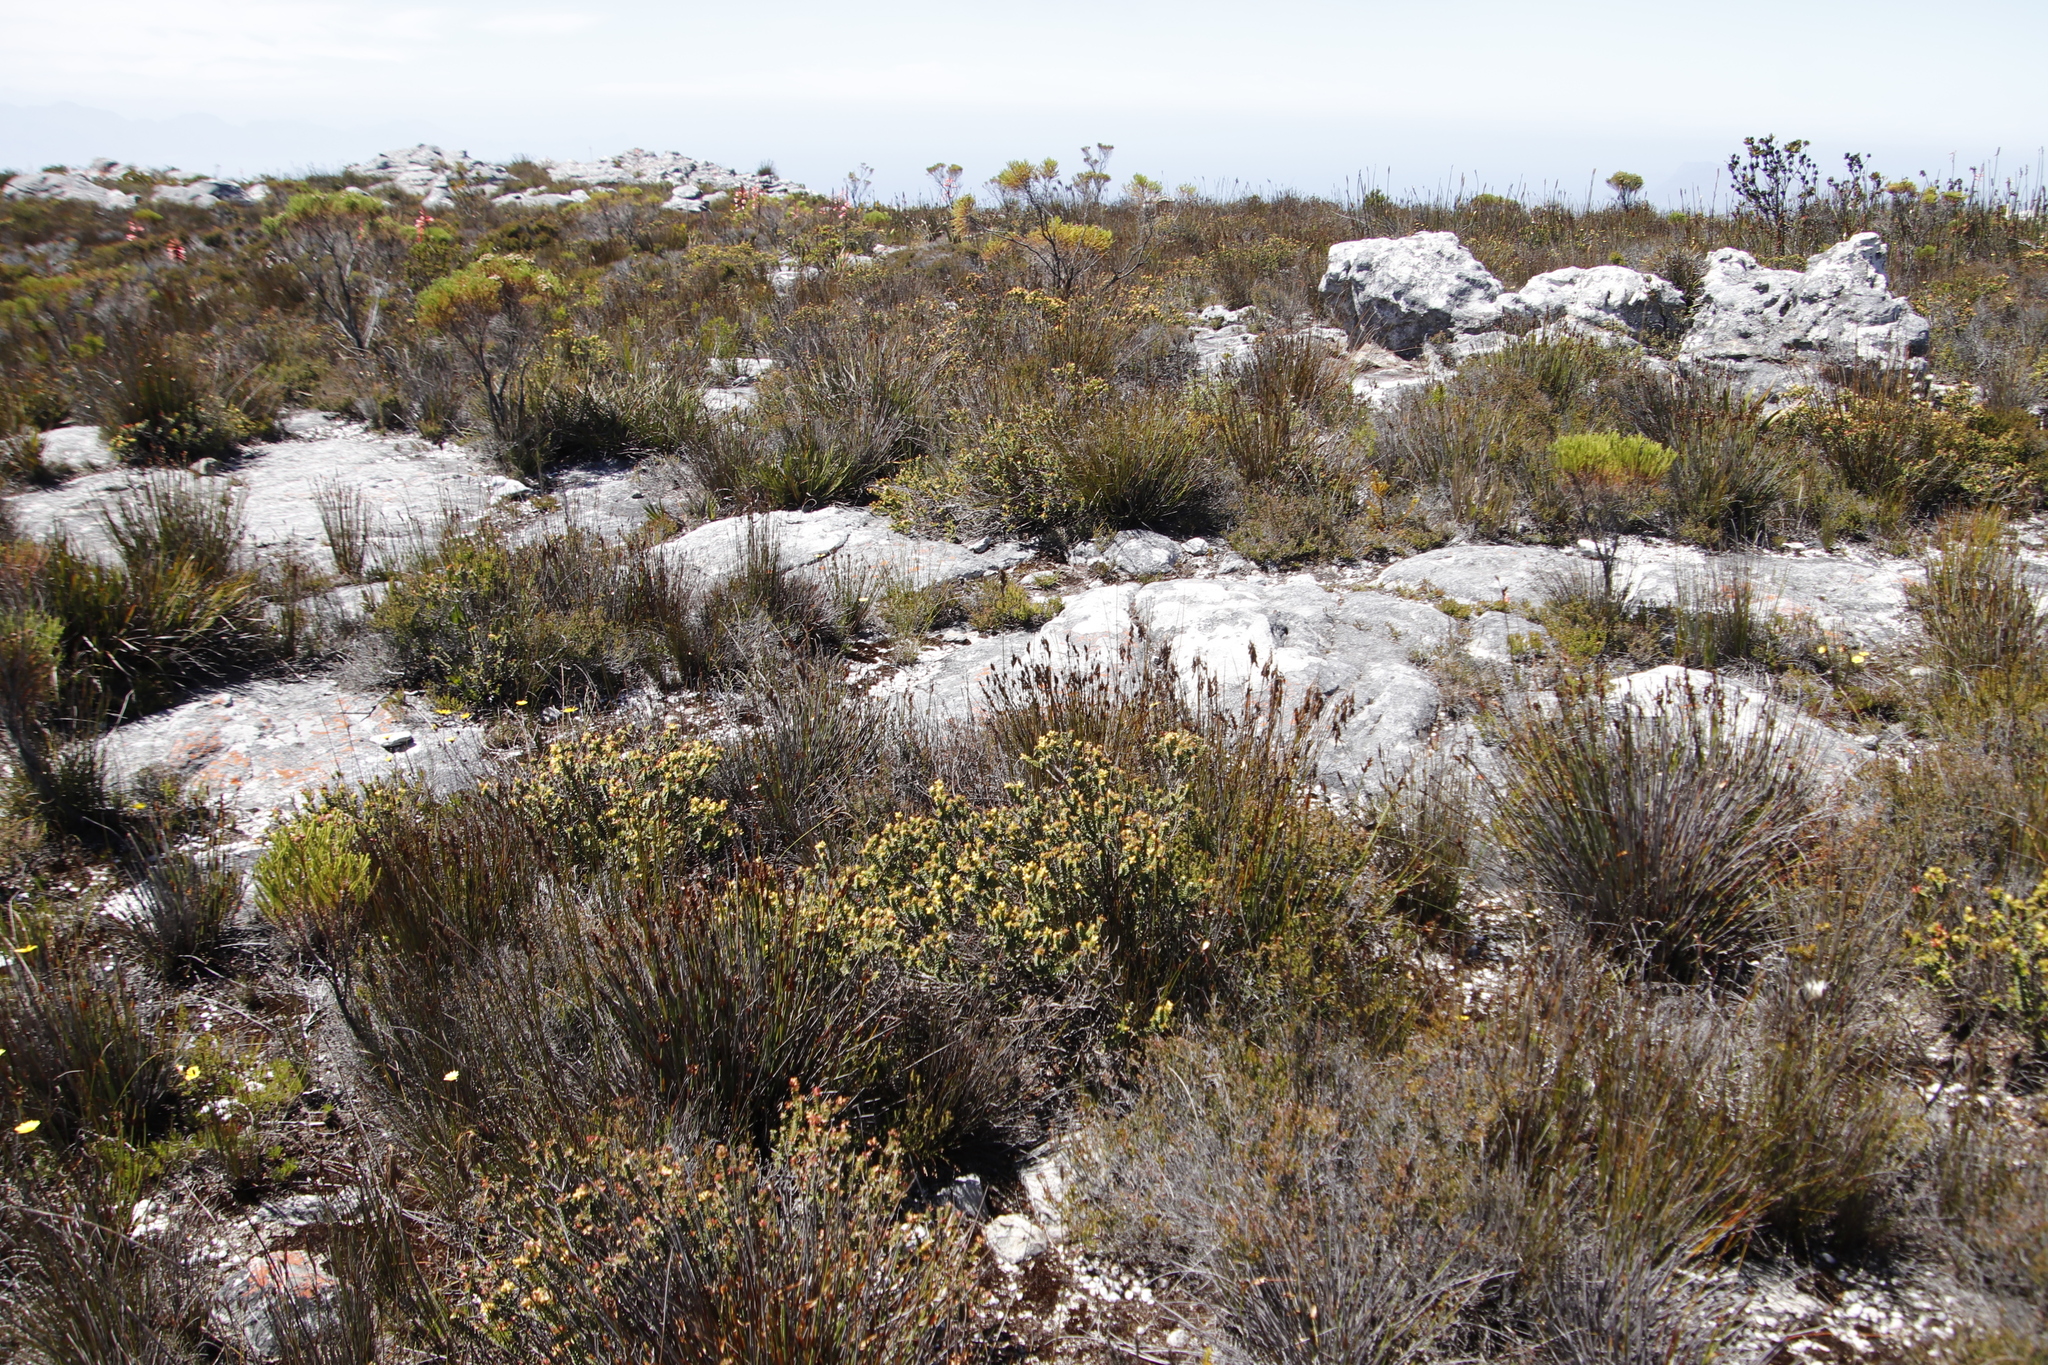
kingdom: Plantae
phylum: Tracheophyta
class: Magnoliopsida
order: Myrtales
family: Penaeaceae
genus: Penaea
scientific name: Penaea mucronata
